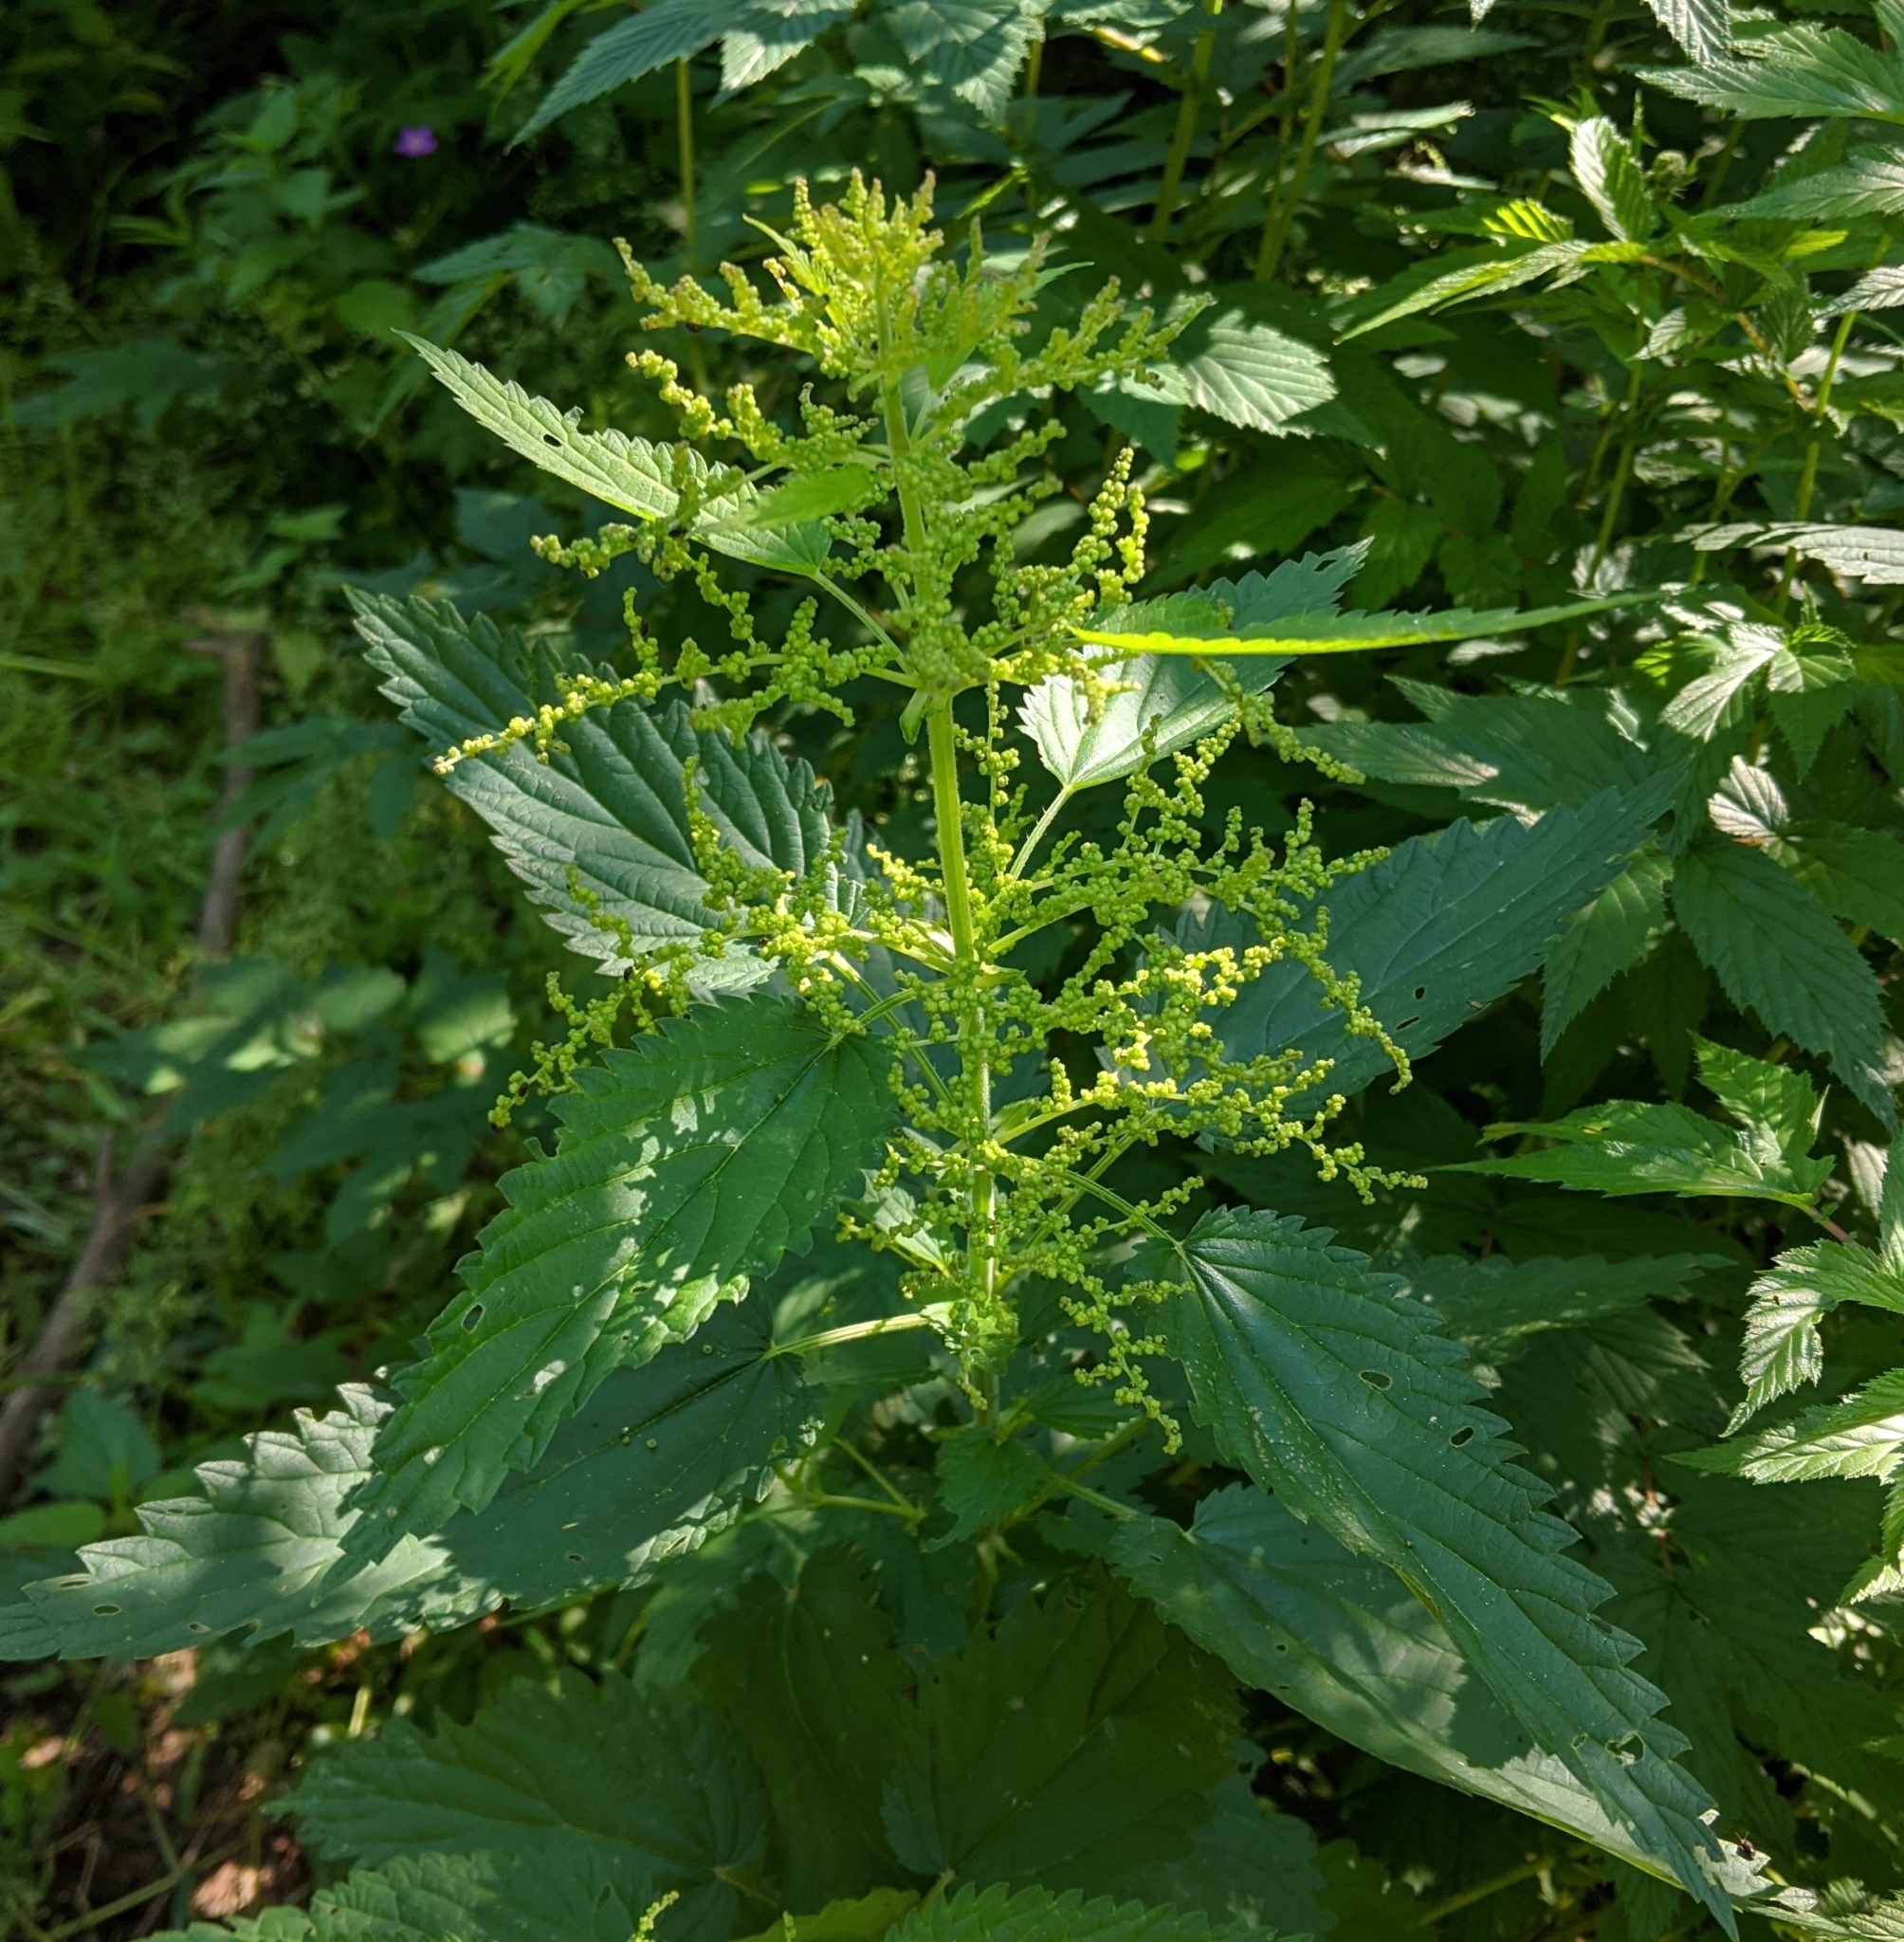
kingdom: Plantae
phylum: Tracheophyta
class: Magnoliopsida
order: Rosales
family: Urticaceae
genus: Urtica
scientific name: Urtica dioica
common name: Common nettle
